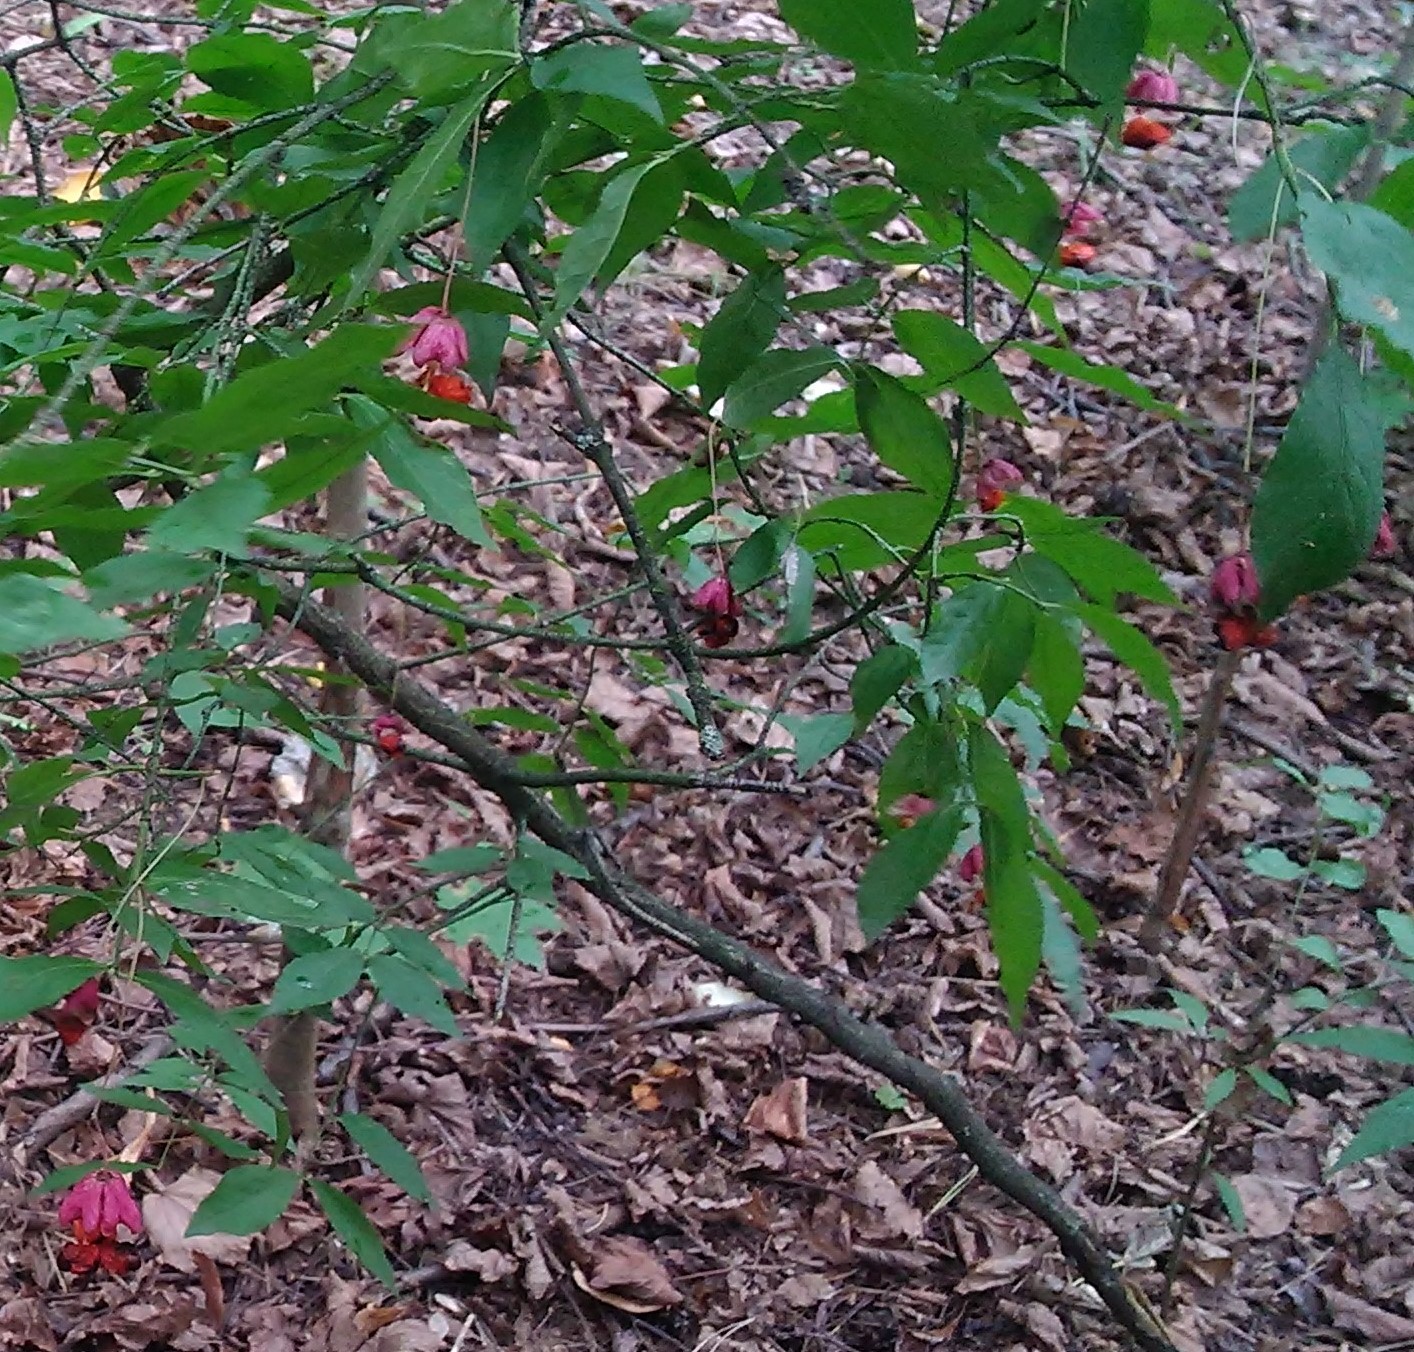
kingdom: Plantae
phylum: Tracheophyta
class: Magnoliopsida
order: Celastrales
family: Celastraceae
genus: Euonymus
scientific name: Euonymus verrucosus
